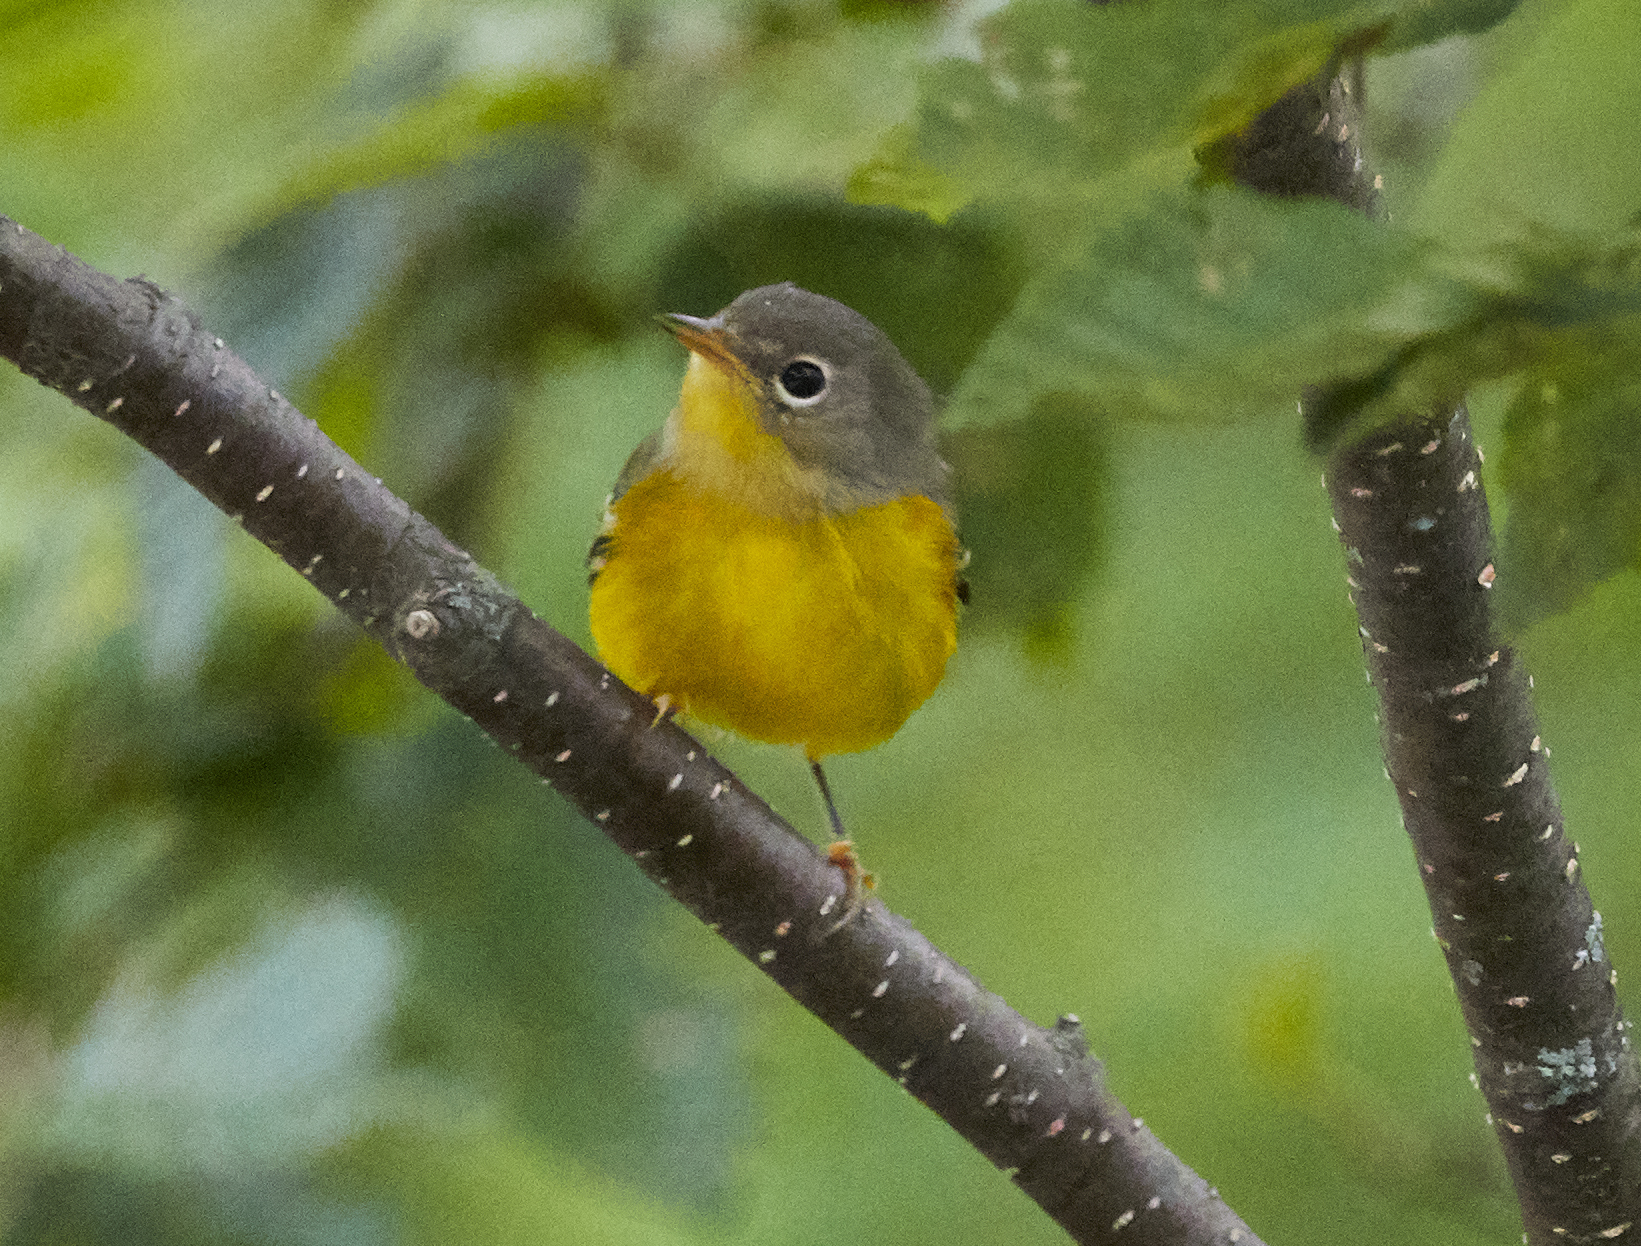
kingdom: Animalia
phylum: Chordata
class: Aves
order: Passeriformes
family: Parulidae
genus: Leiothlypis
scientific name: Leiothlypis ruficapilla
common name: Nashville warbler
